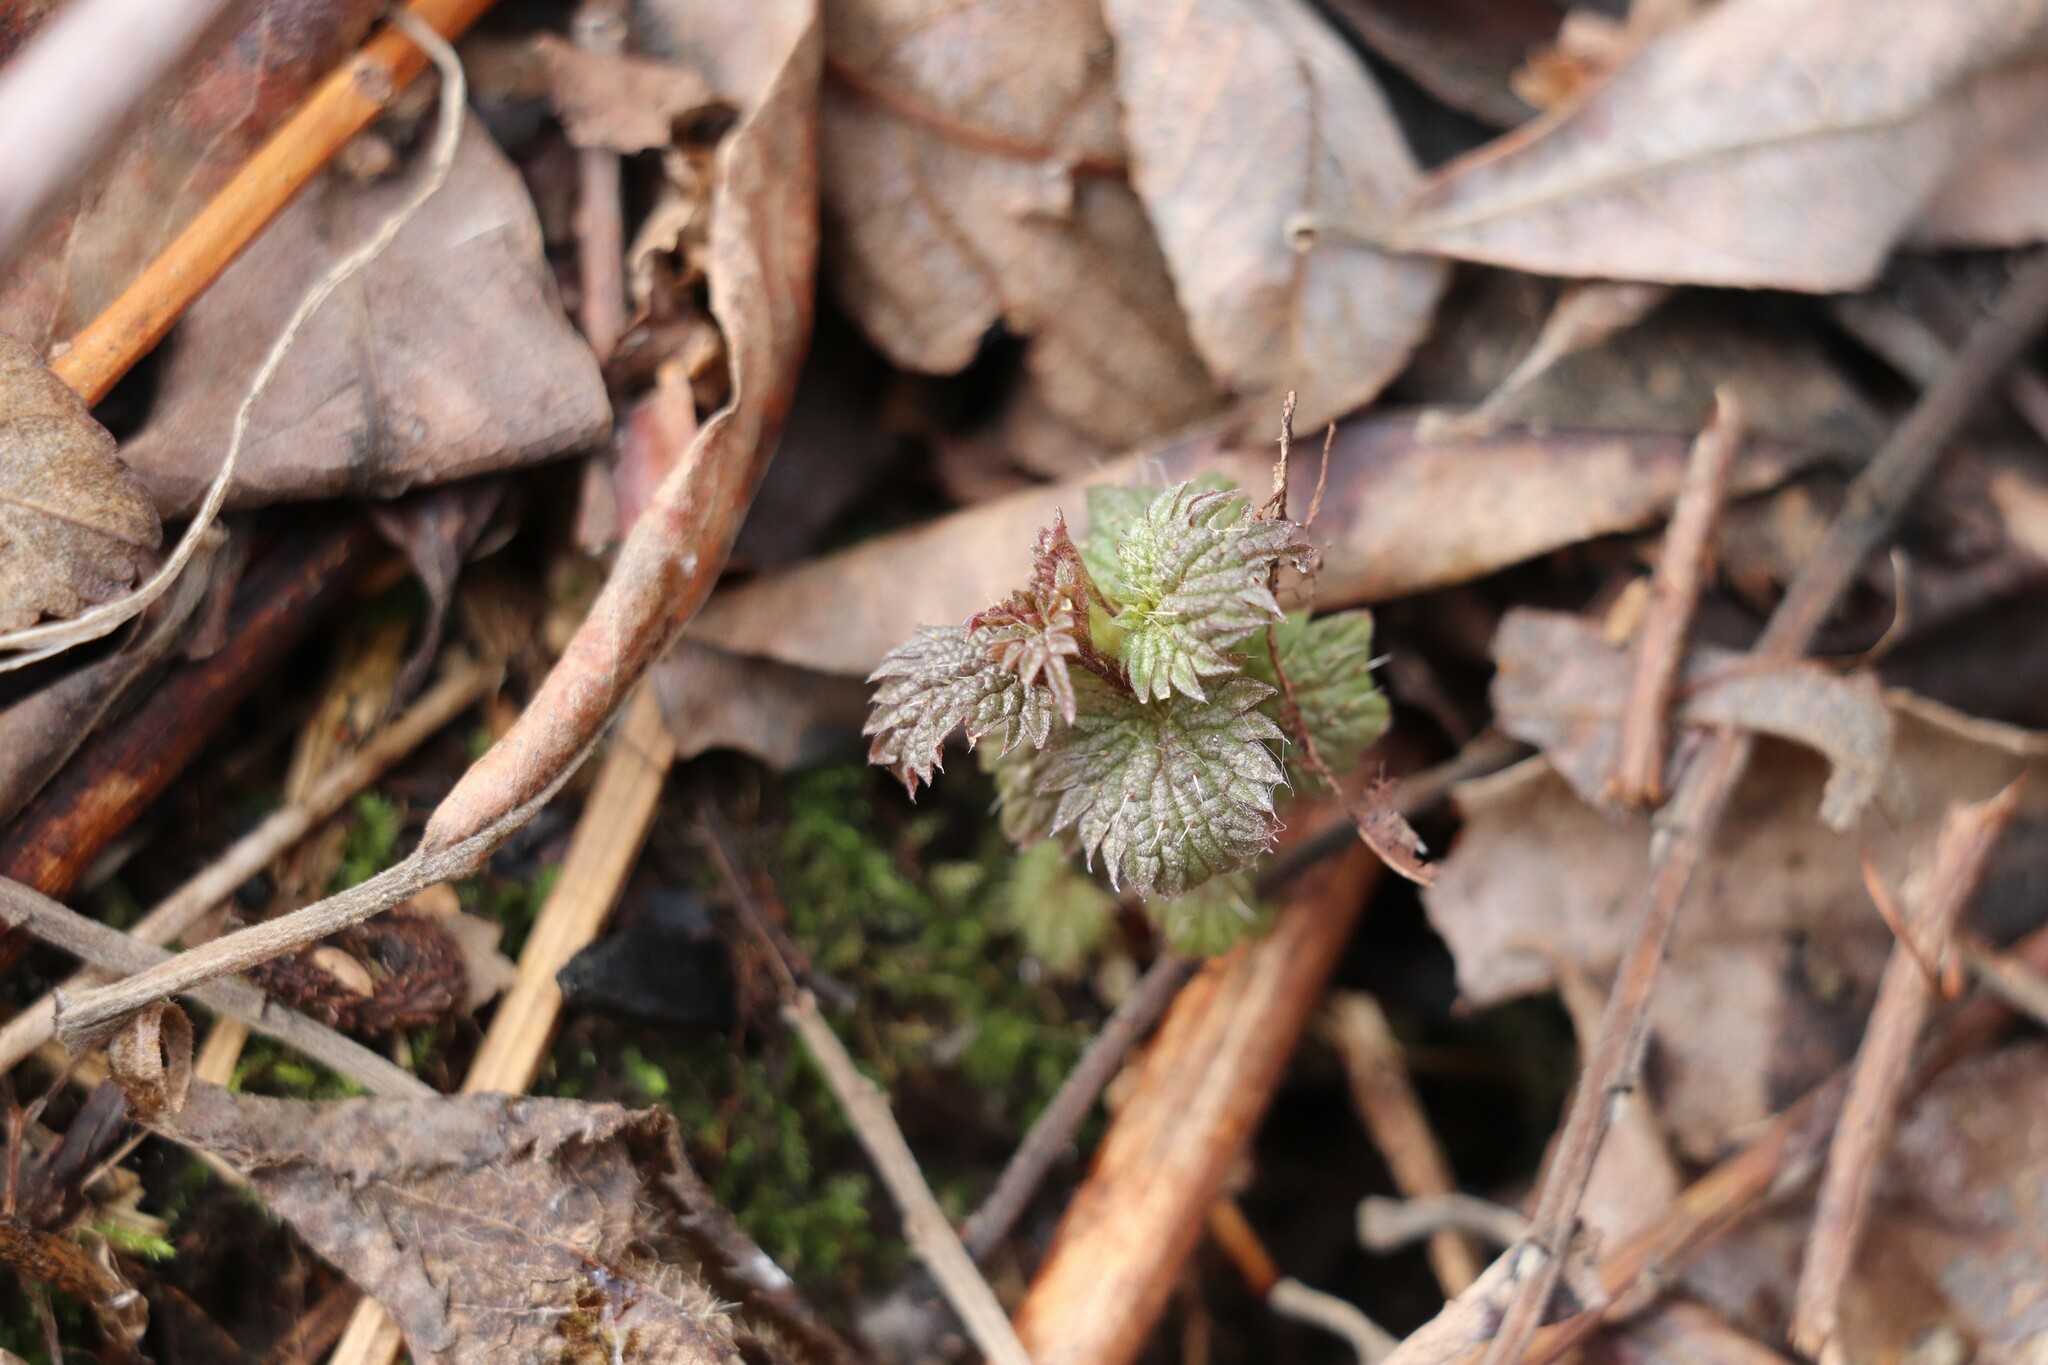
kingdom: Plantae
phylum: Tracheophyta
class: Magnoliopsida
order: Rosales
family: Urticaceae
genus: Urtica
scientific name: Urtica dioica
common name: Common nettle
